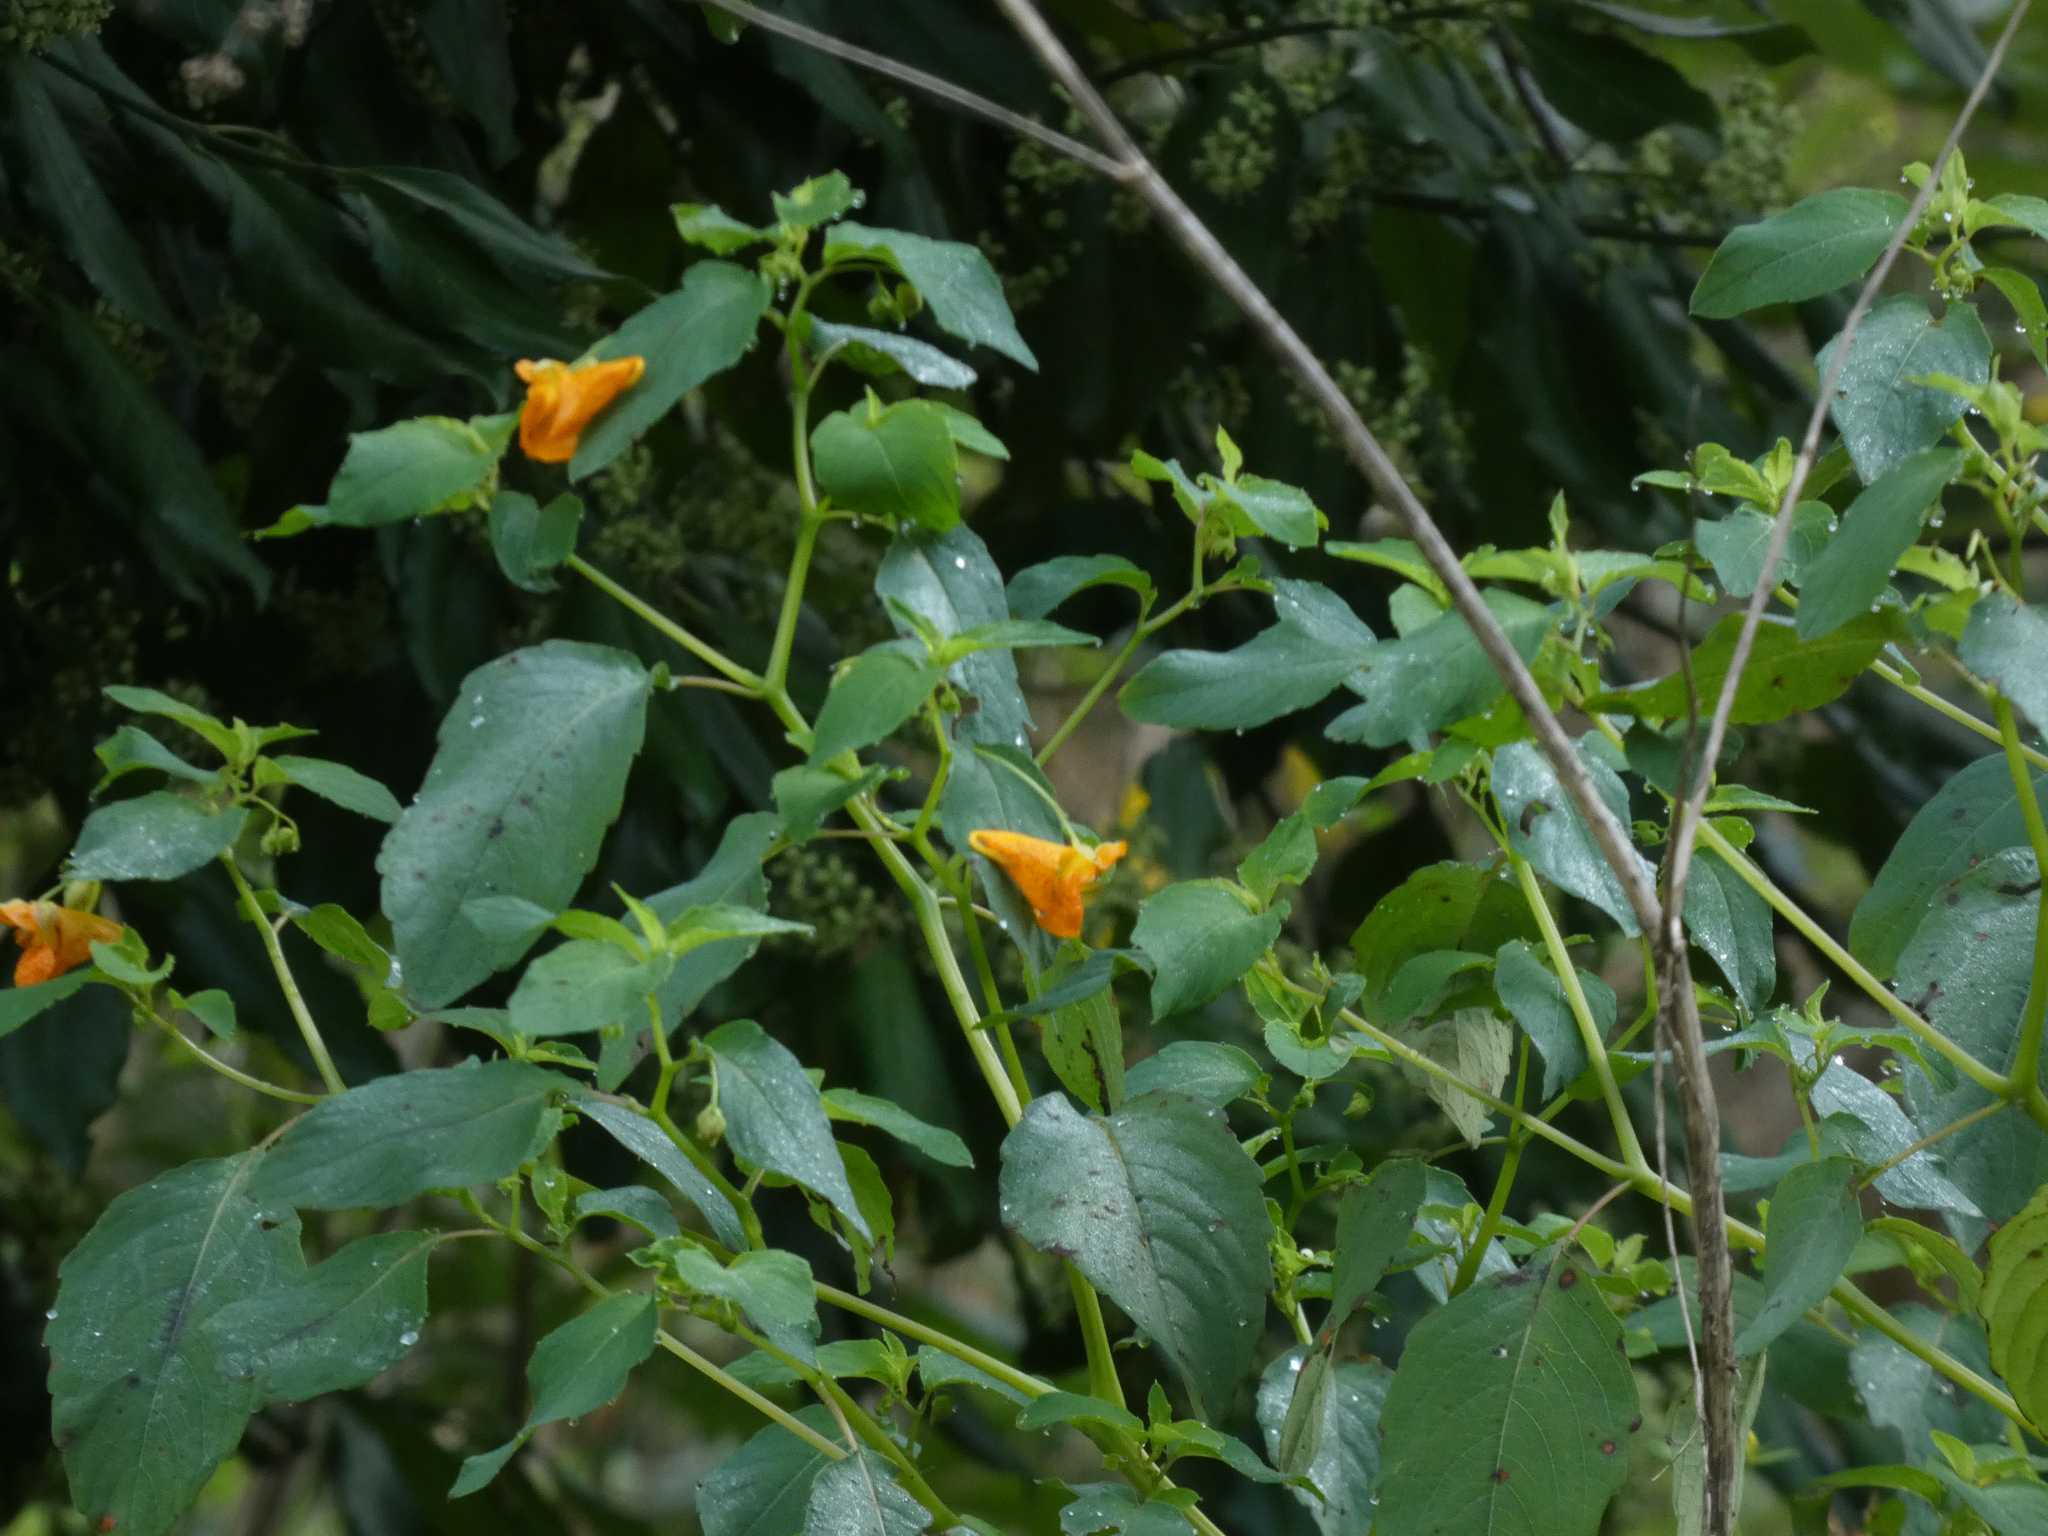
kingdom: Plantae
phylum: Tracheophyta
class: Magnoliopsida
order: Ericales
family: Balsaminaceae
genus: Impatiens
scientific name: Impatiens capensis
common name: Orange balsam
